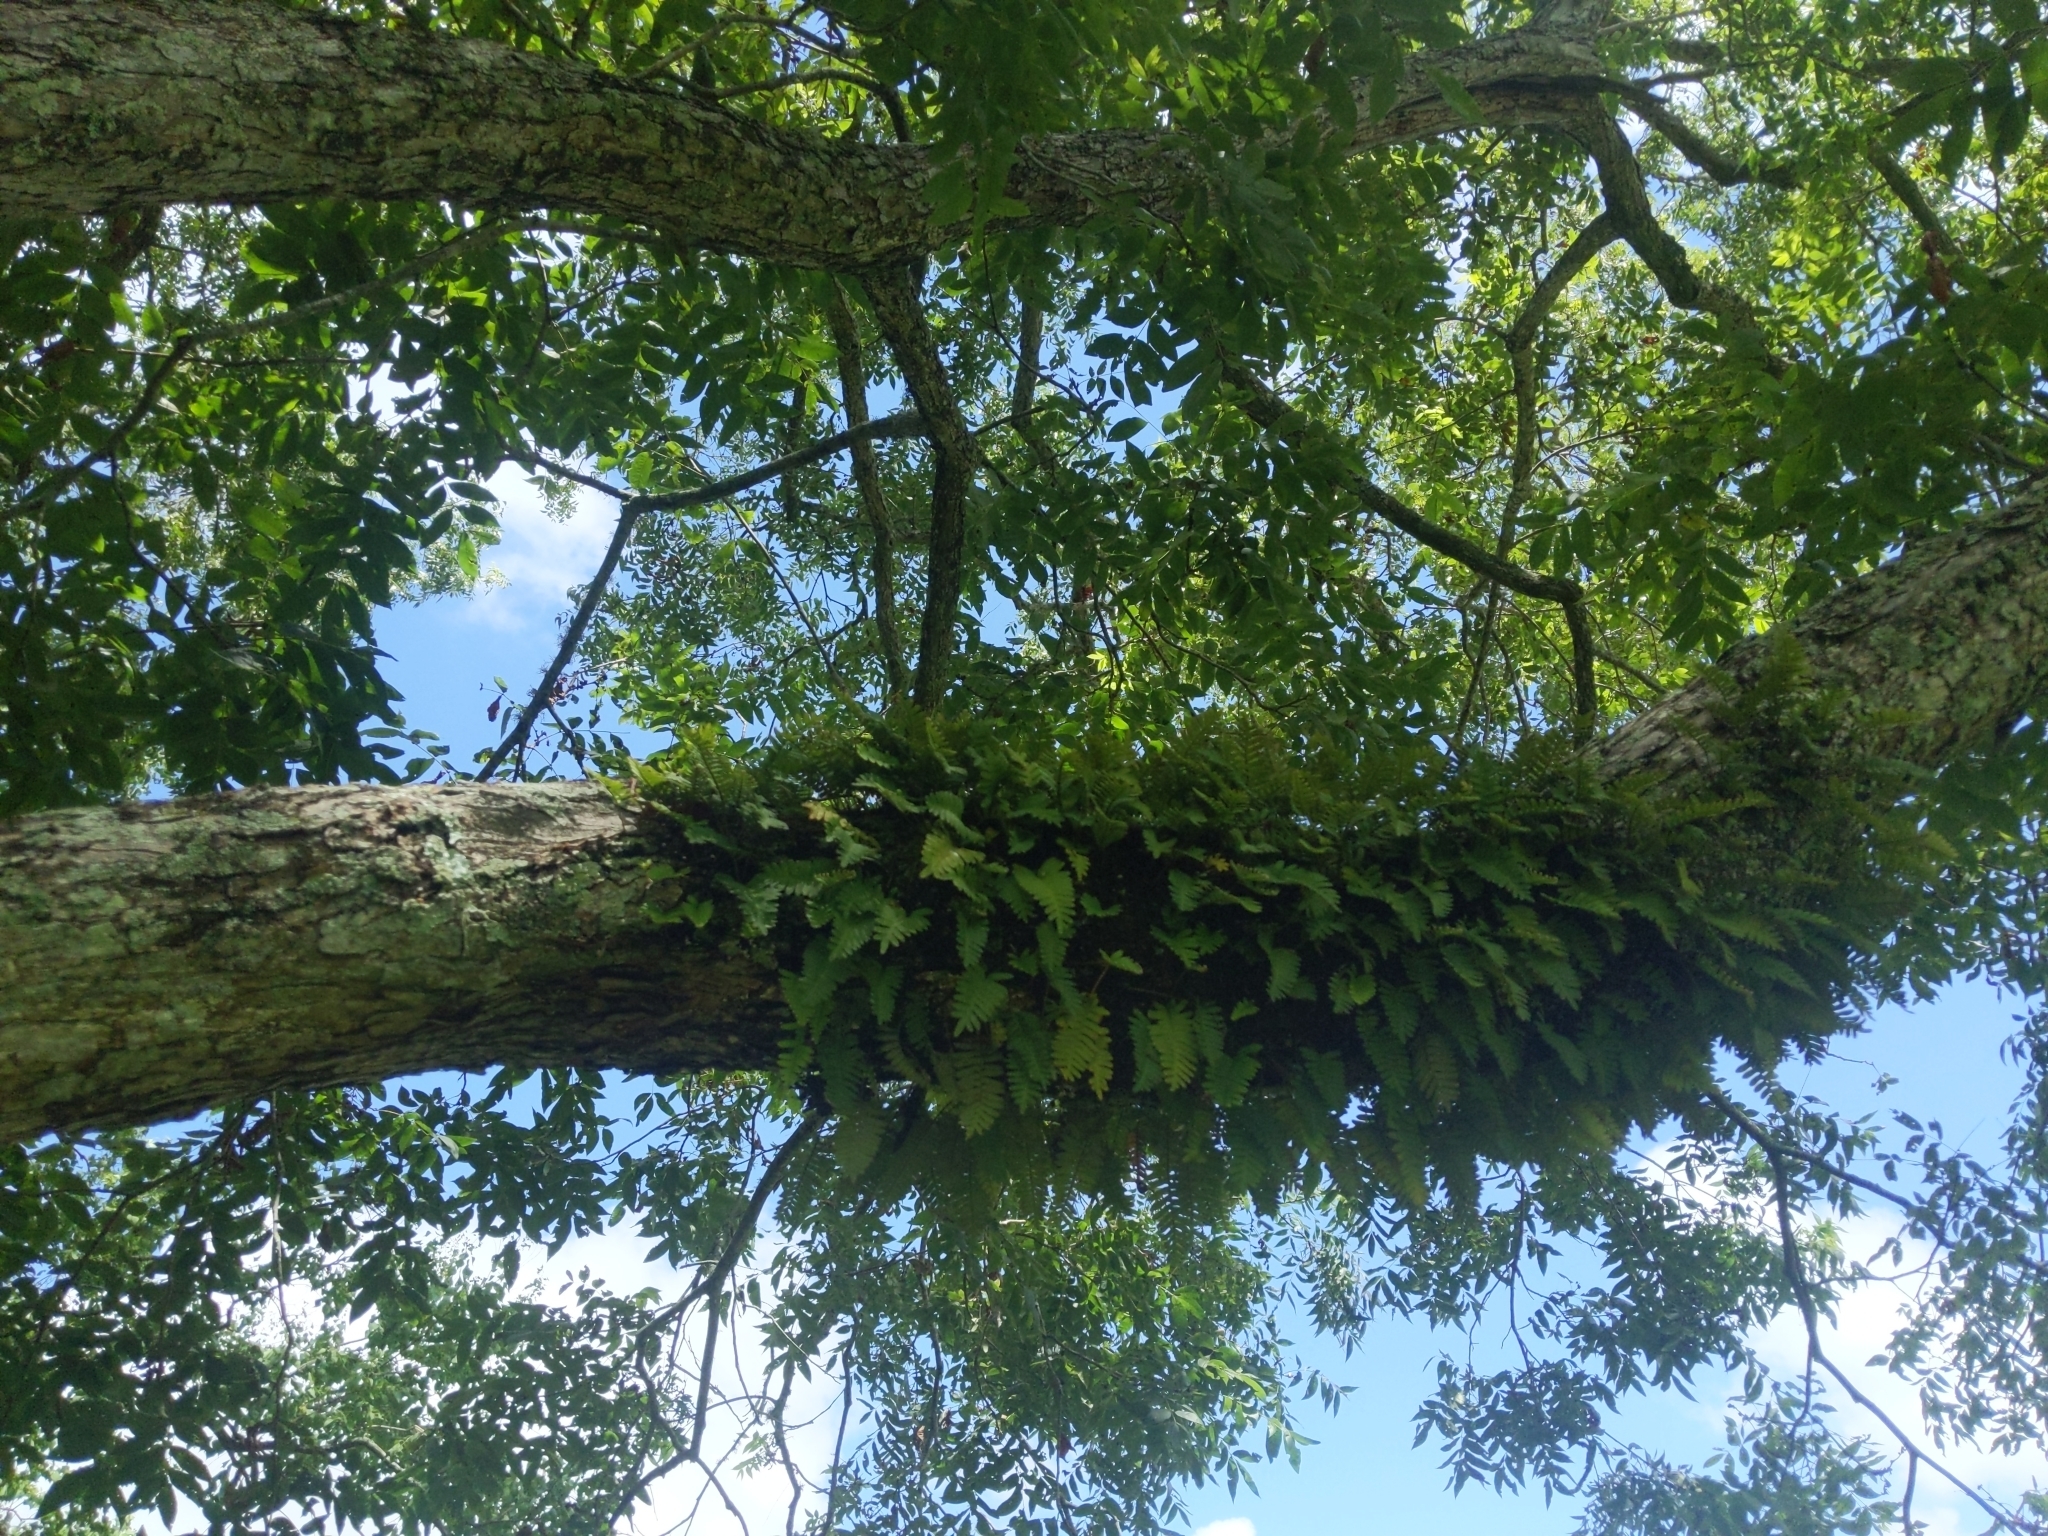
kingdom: Plantae
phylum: Tracheophyta
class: Polypodiopsida
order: Polypodiales
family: Polypodiaceae
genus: Pleopeltis
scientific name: Pleopeltis michauxiana
